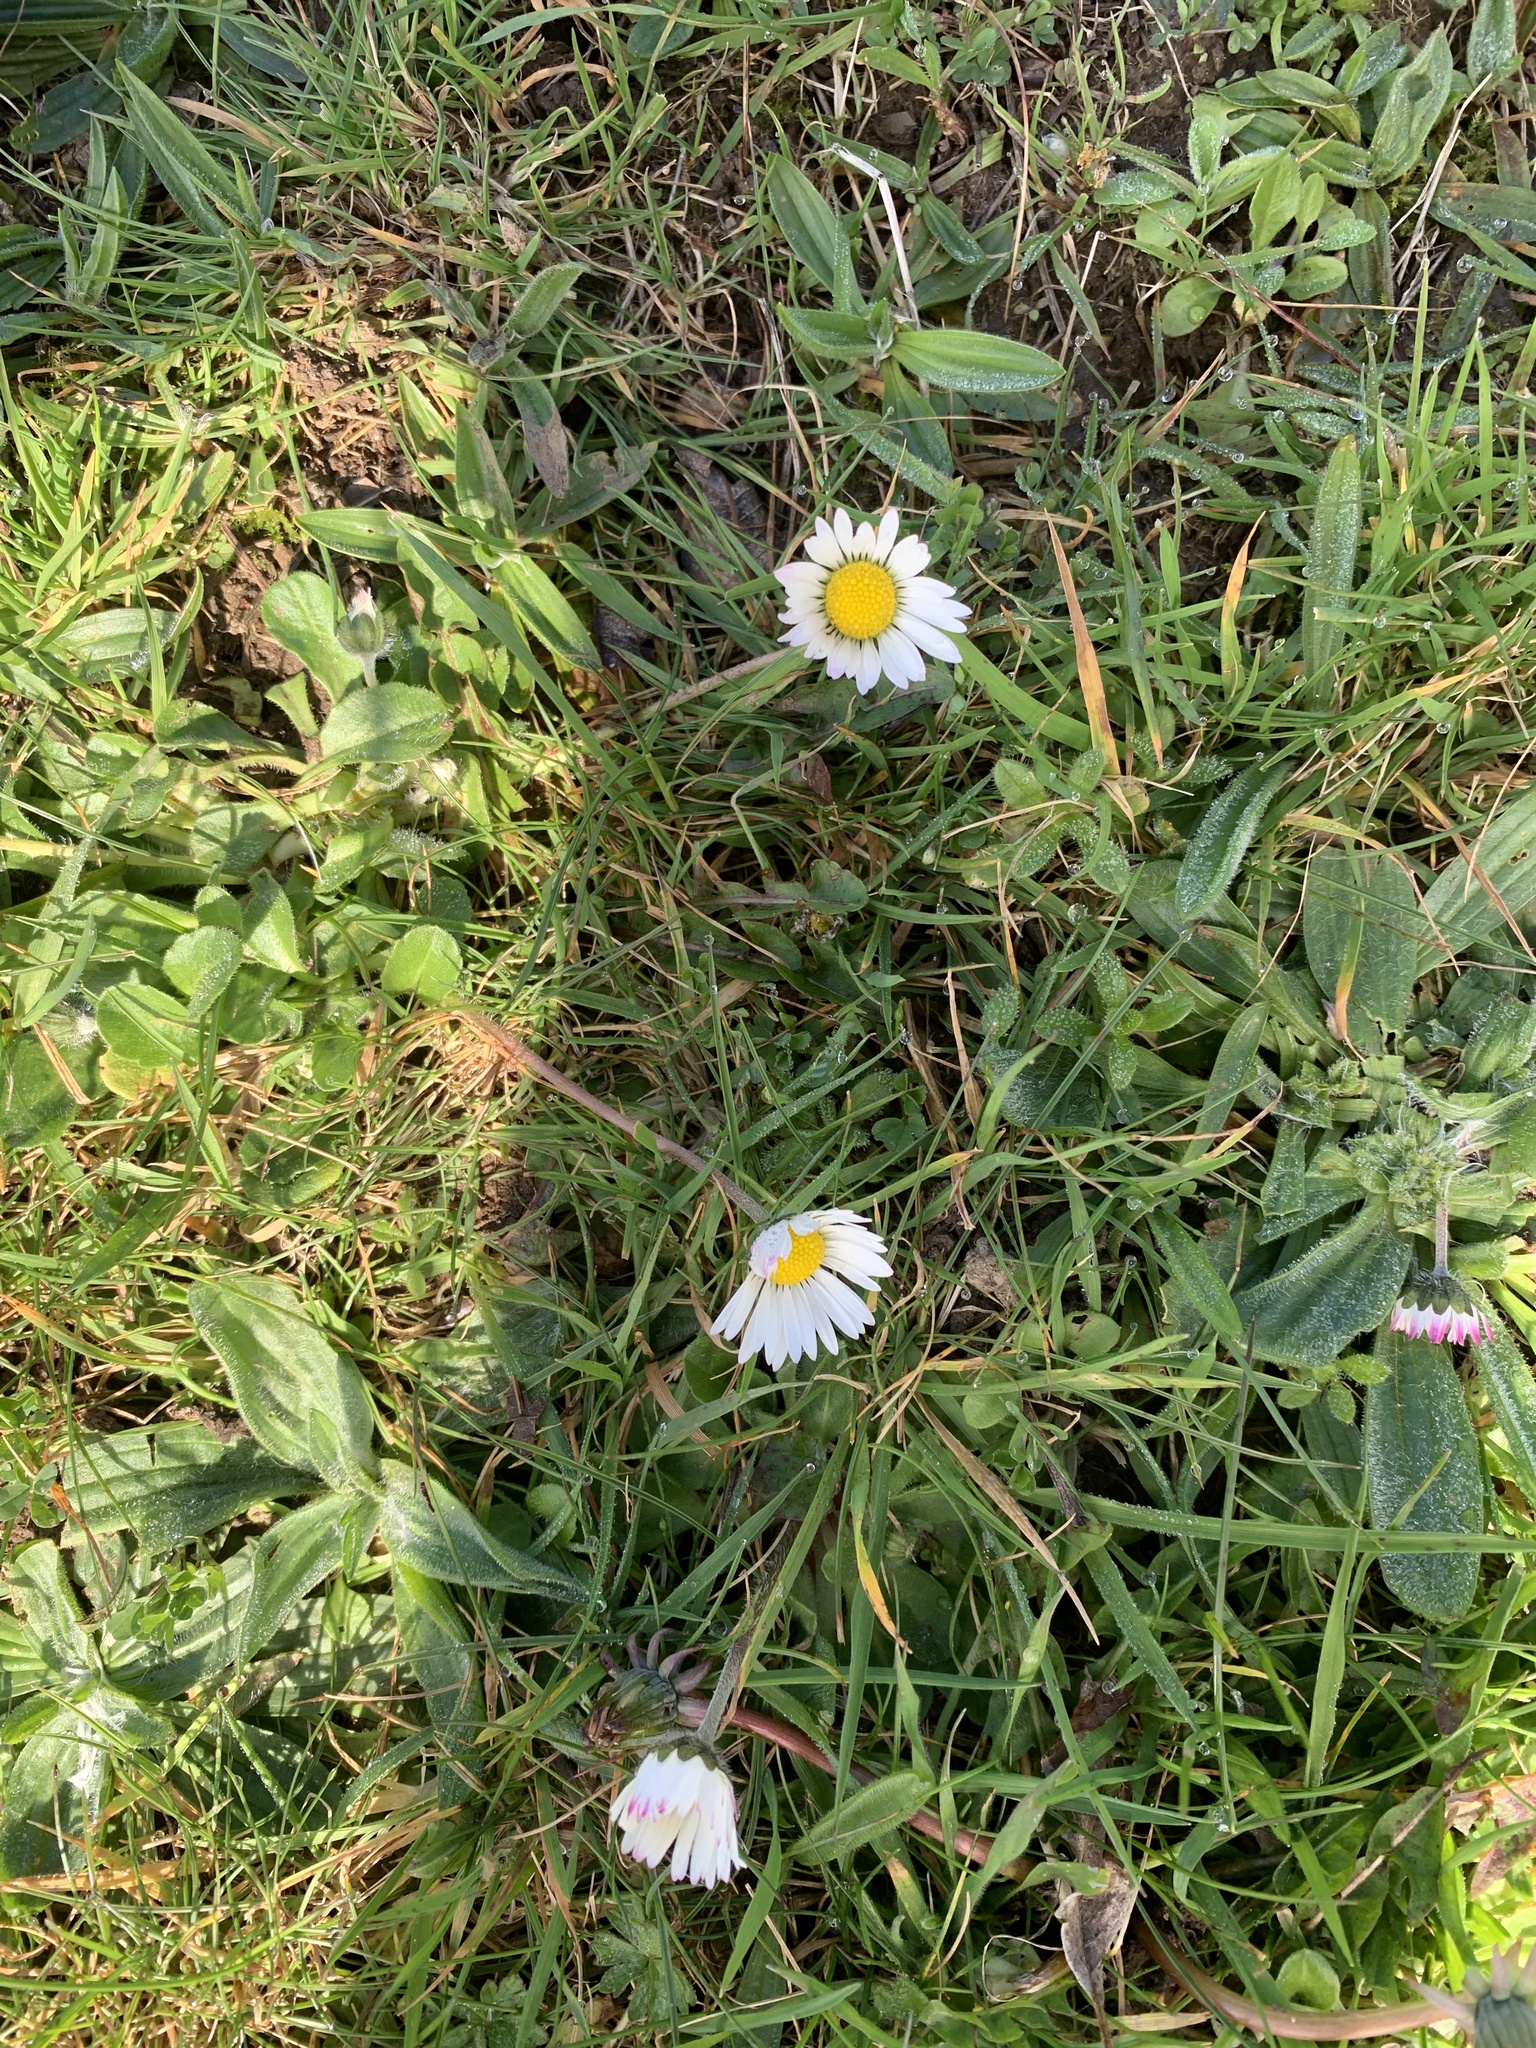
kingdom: Plantae
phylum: Tracheophyta
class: Magnoliopsida
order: Asterales
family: Asteraceae
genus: Bellis
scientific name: Bellis perennis
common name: Lawndaisy
